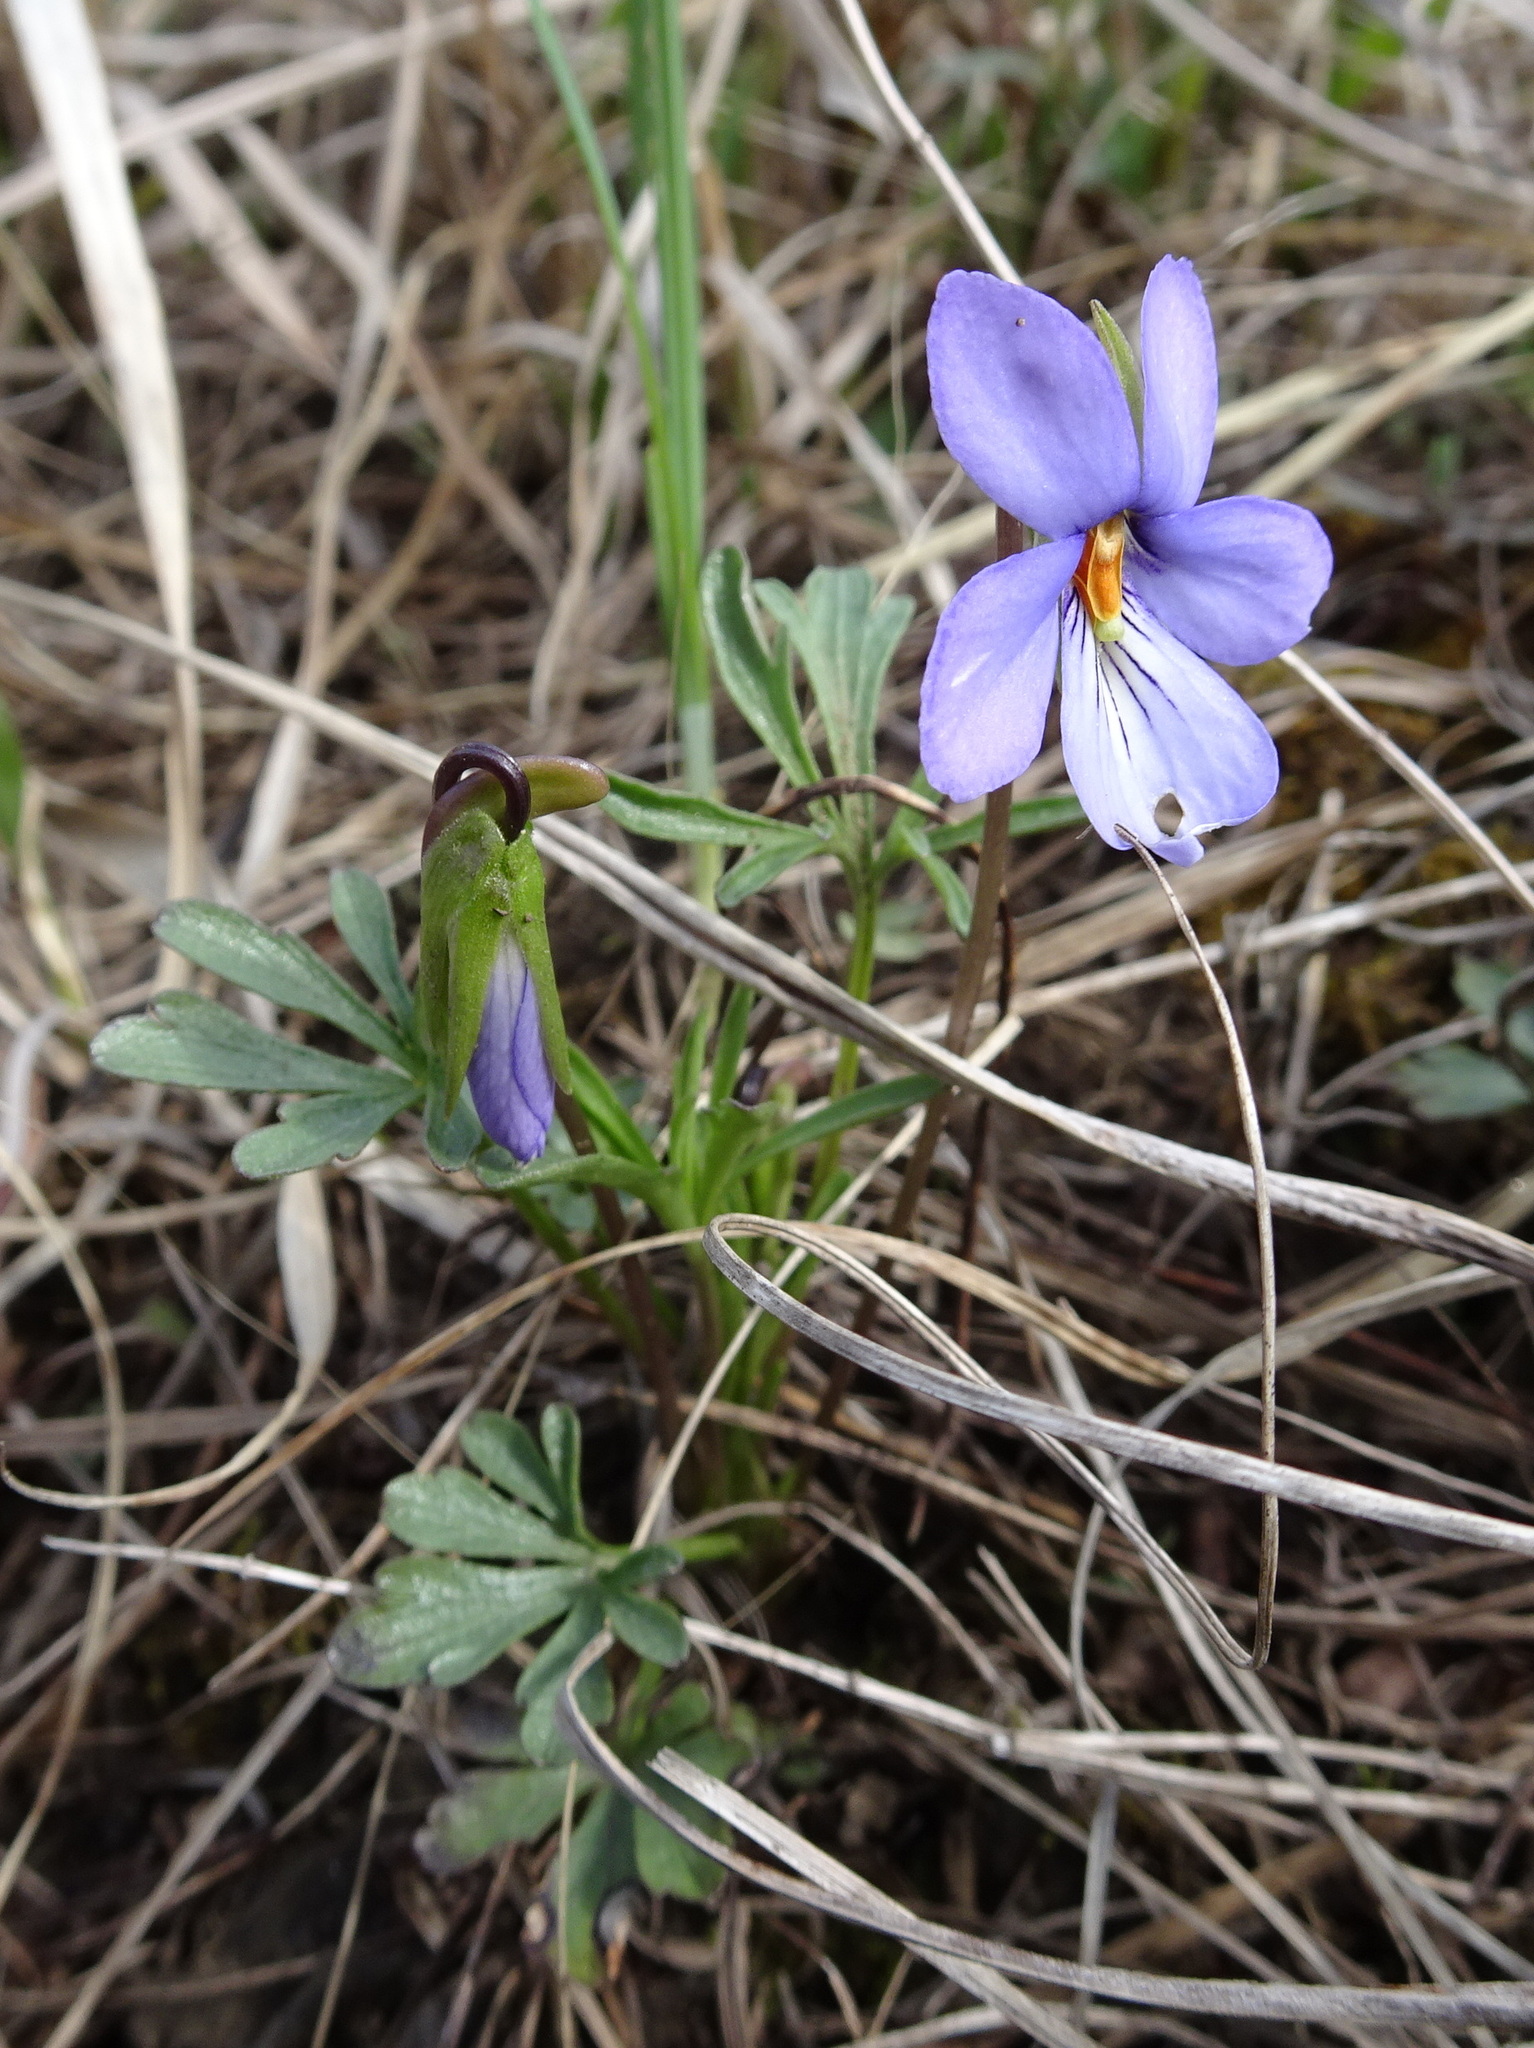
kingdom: Plantae
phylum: Tracheophyta
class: Magnoliopsida
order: Malpighiales
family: Violaceae
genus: Viola
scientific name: Viola pedata
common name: Pansy violet
